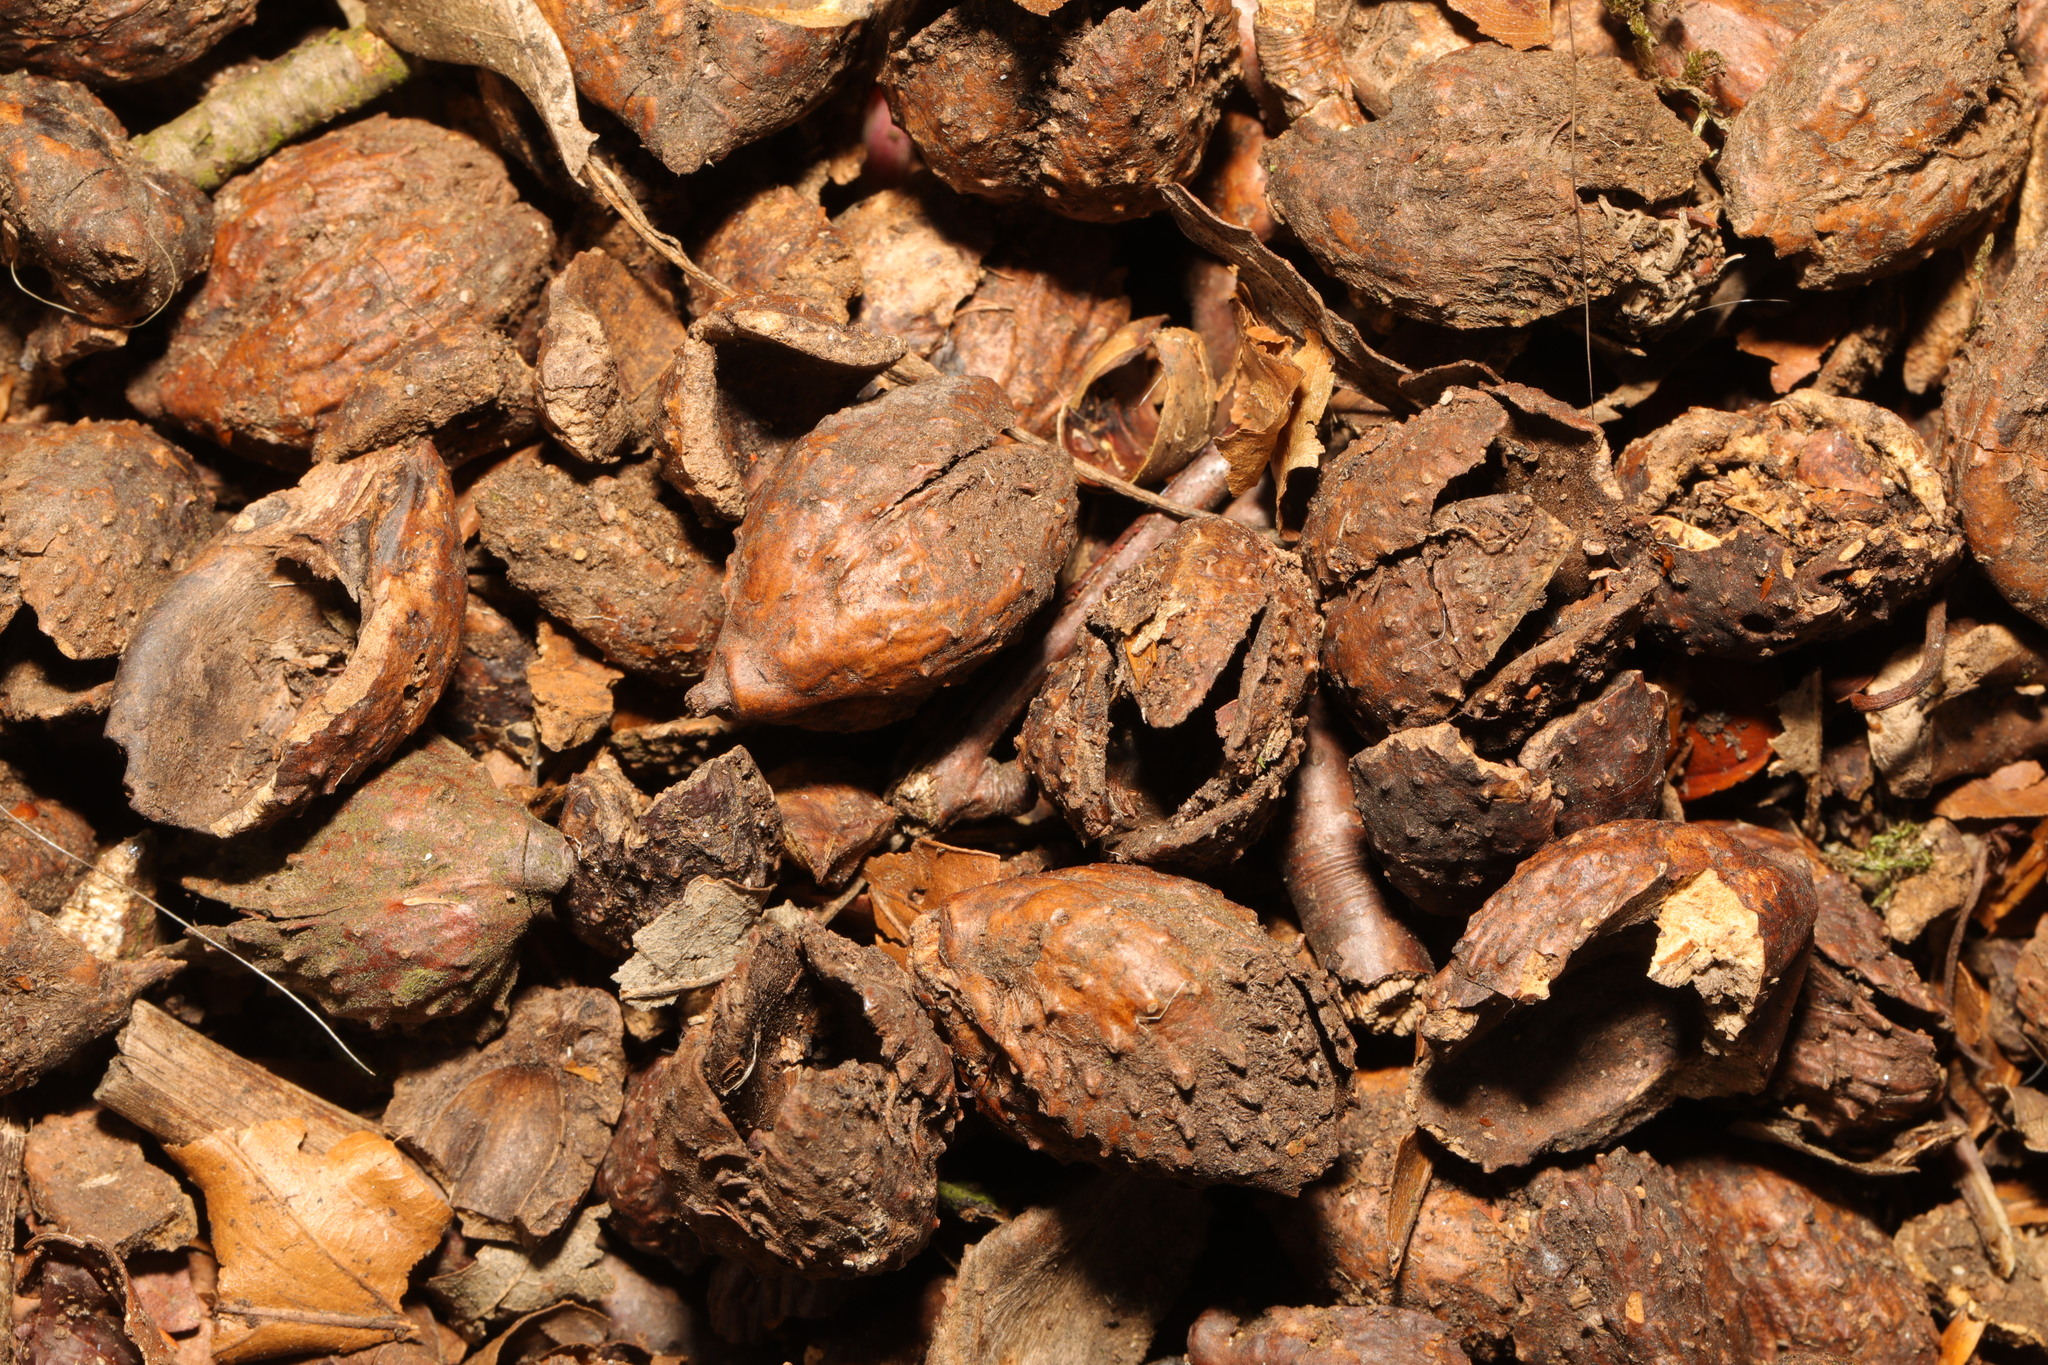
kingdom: Plantae
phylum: Tracheophyta
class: Magnoliopsida
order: Fagales
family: Fagaceae
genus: Fagus
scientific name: Fagus sylvatica
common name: Beech
